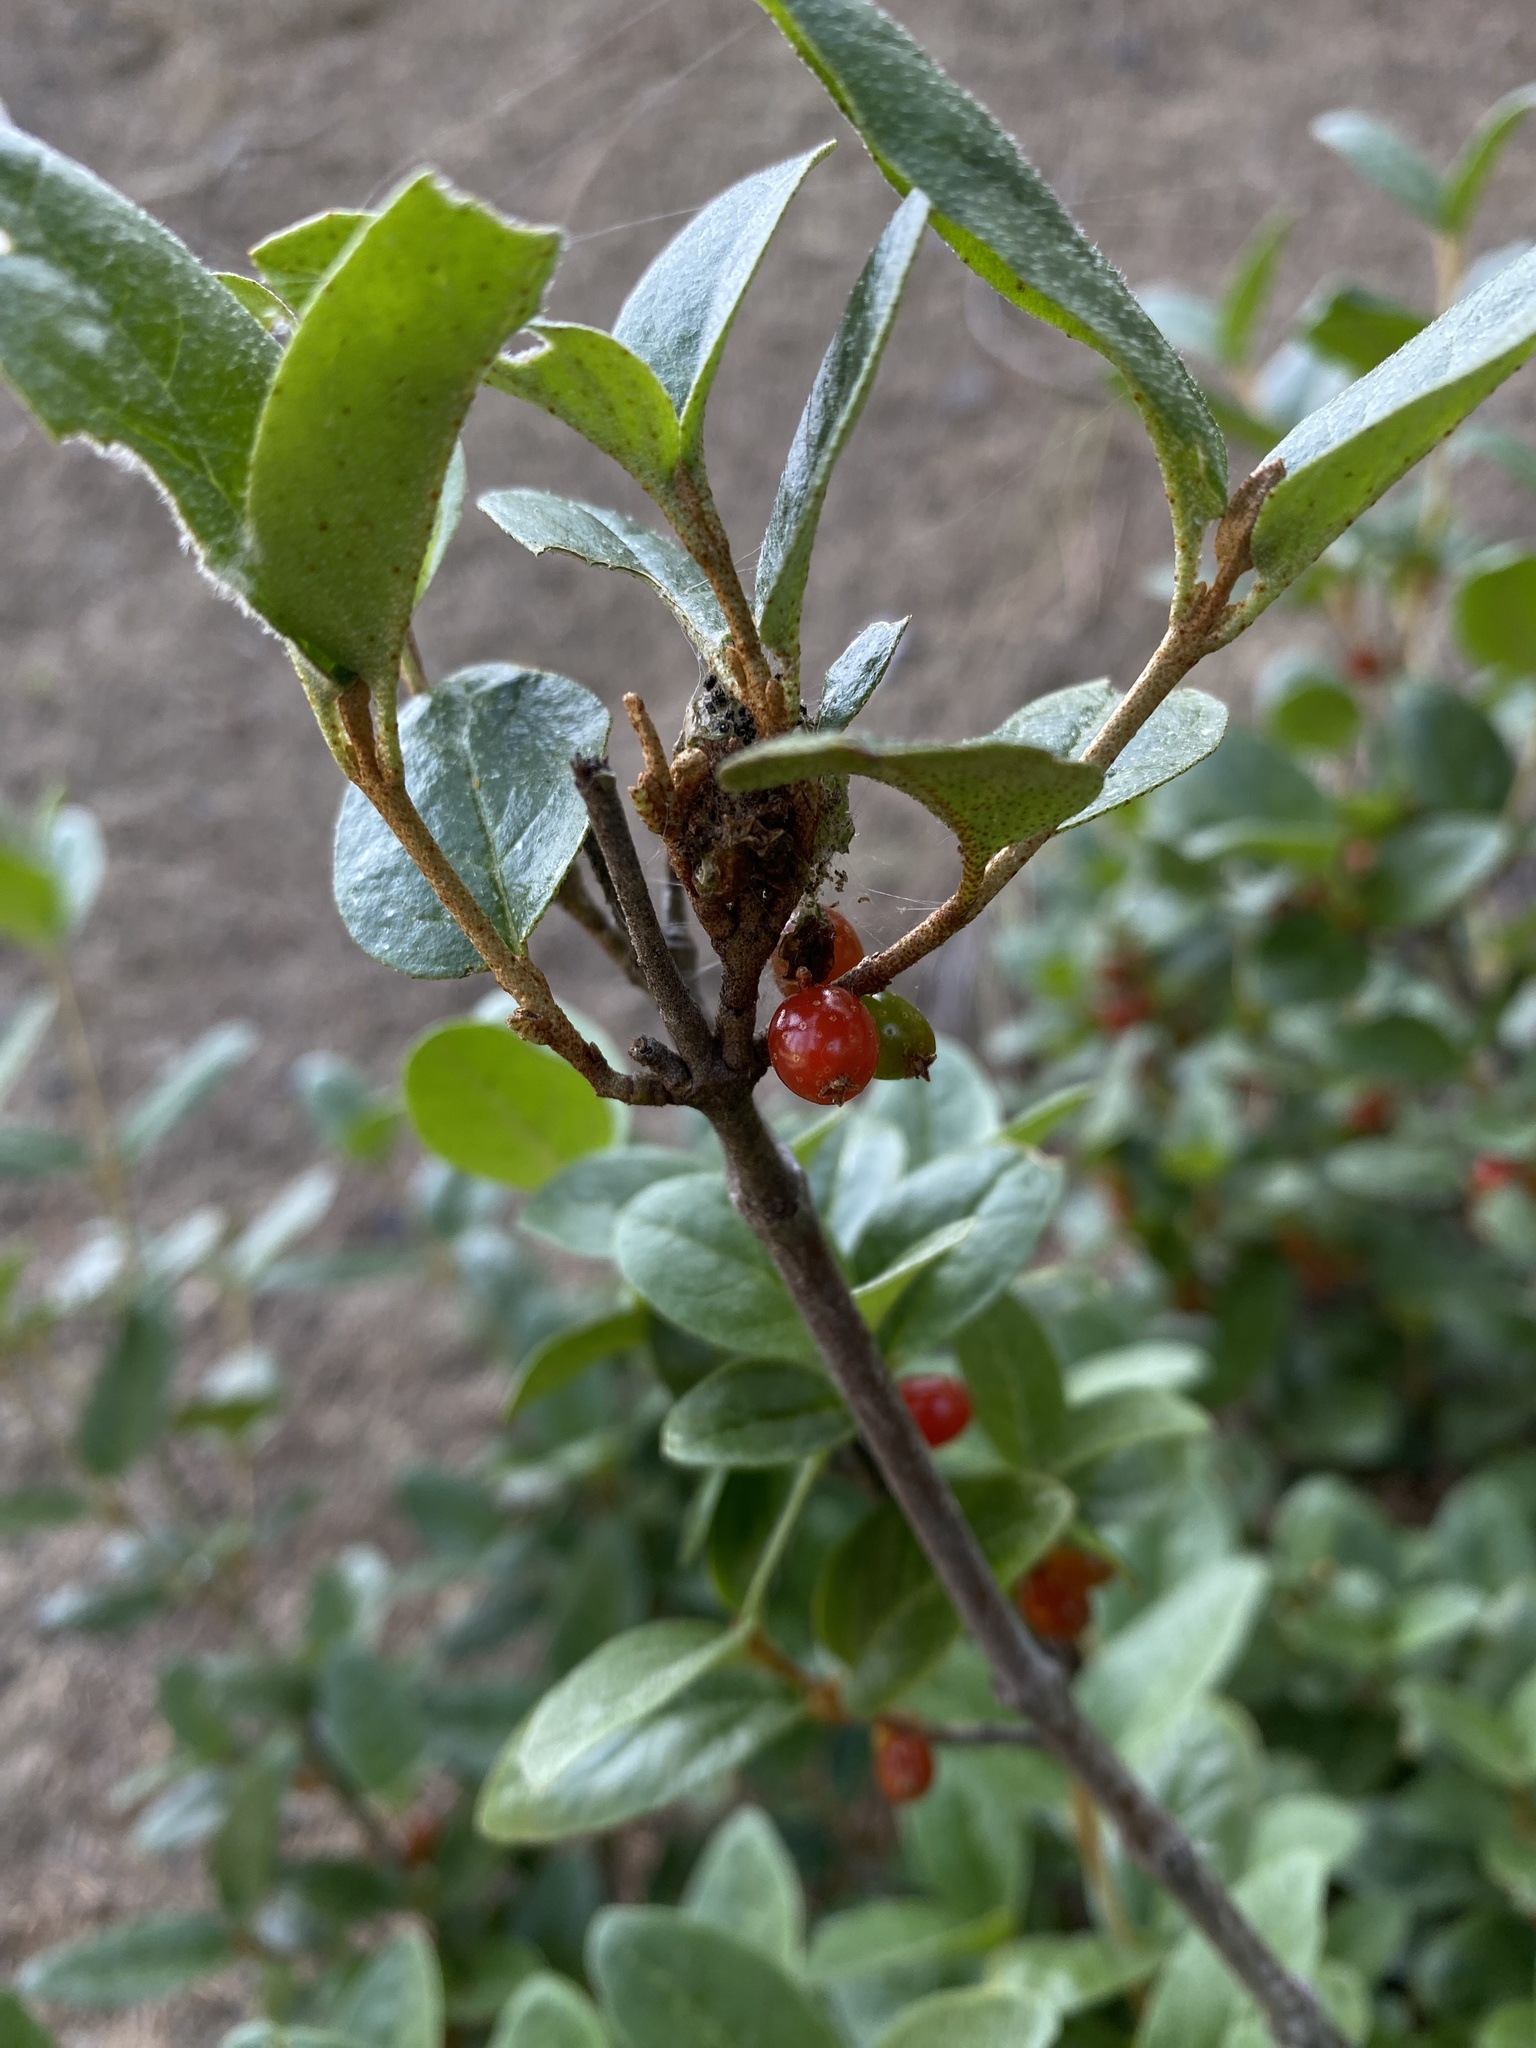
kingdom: Plantae
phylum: Tracheophyta
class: Magnoliopsida
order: Rosales
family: Elaeagnaceae
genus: Shepherdia
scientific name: Shepherdia canadensis
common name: Soapberry
